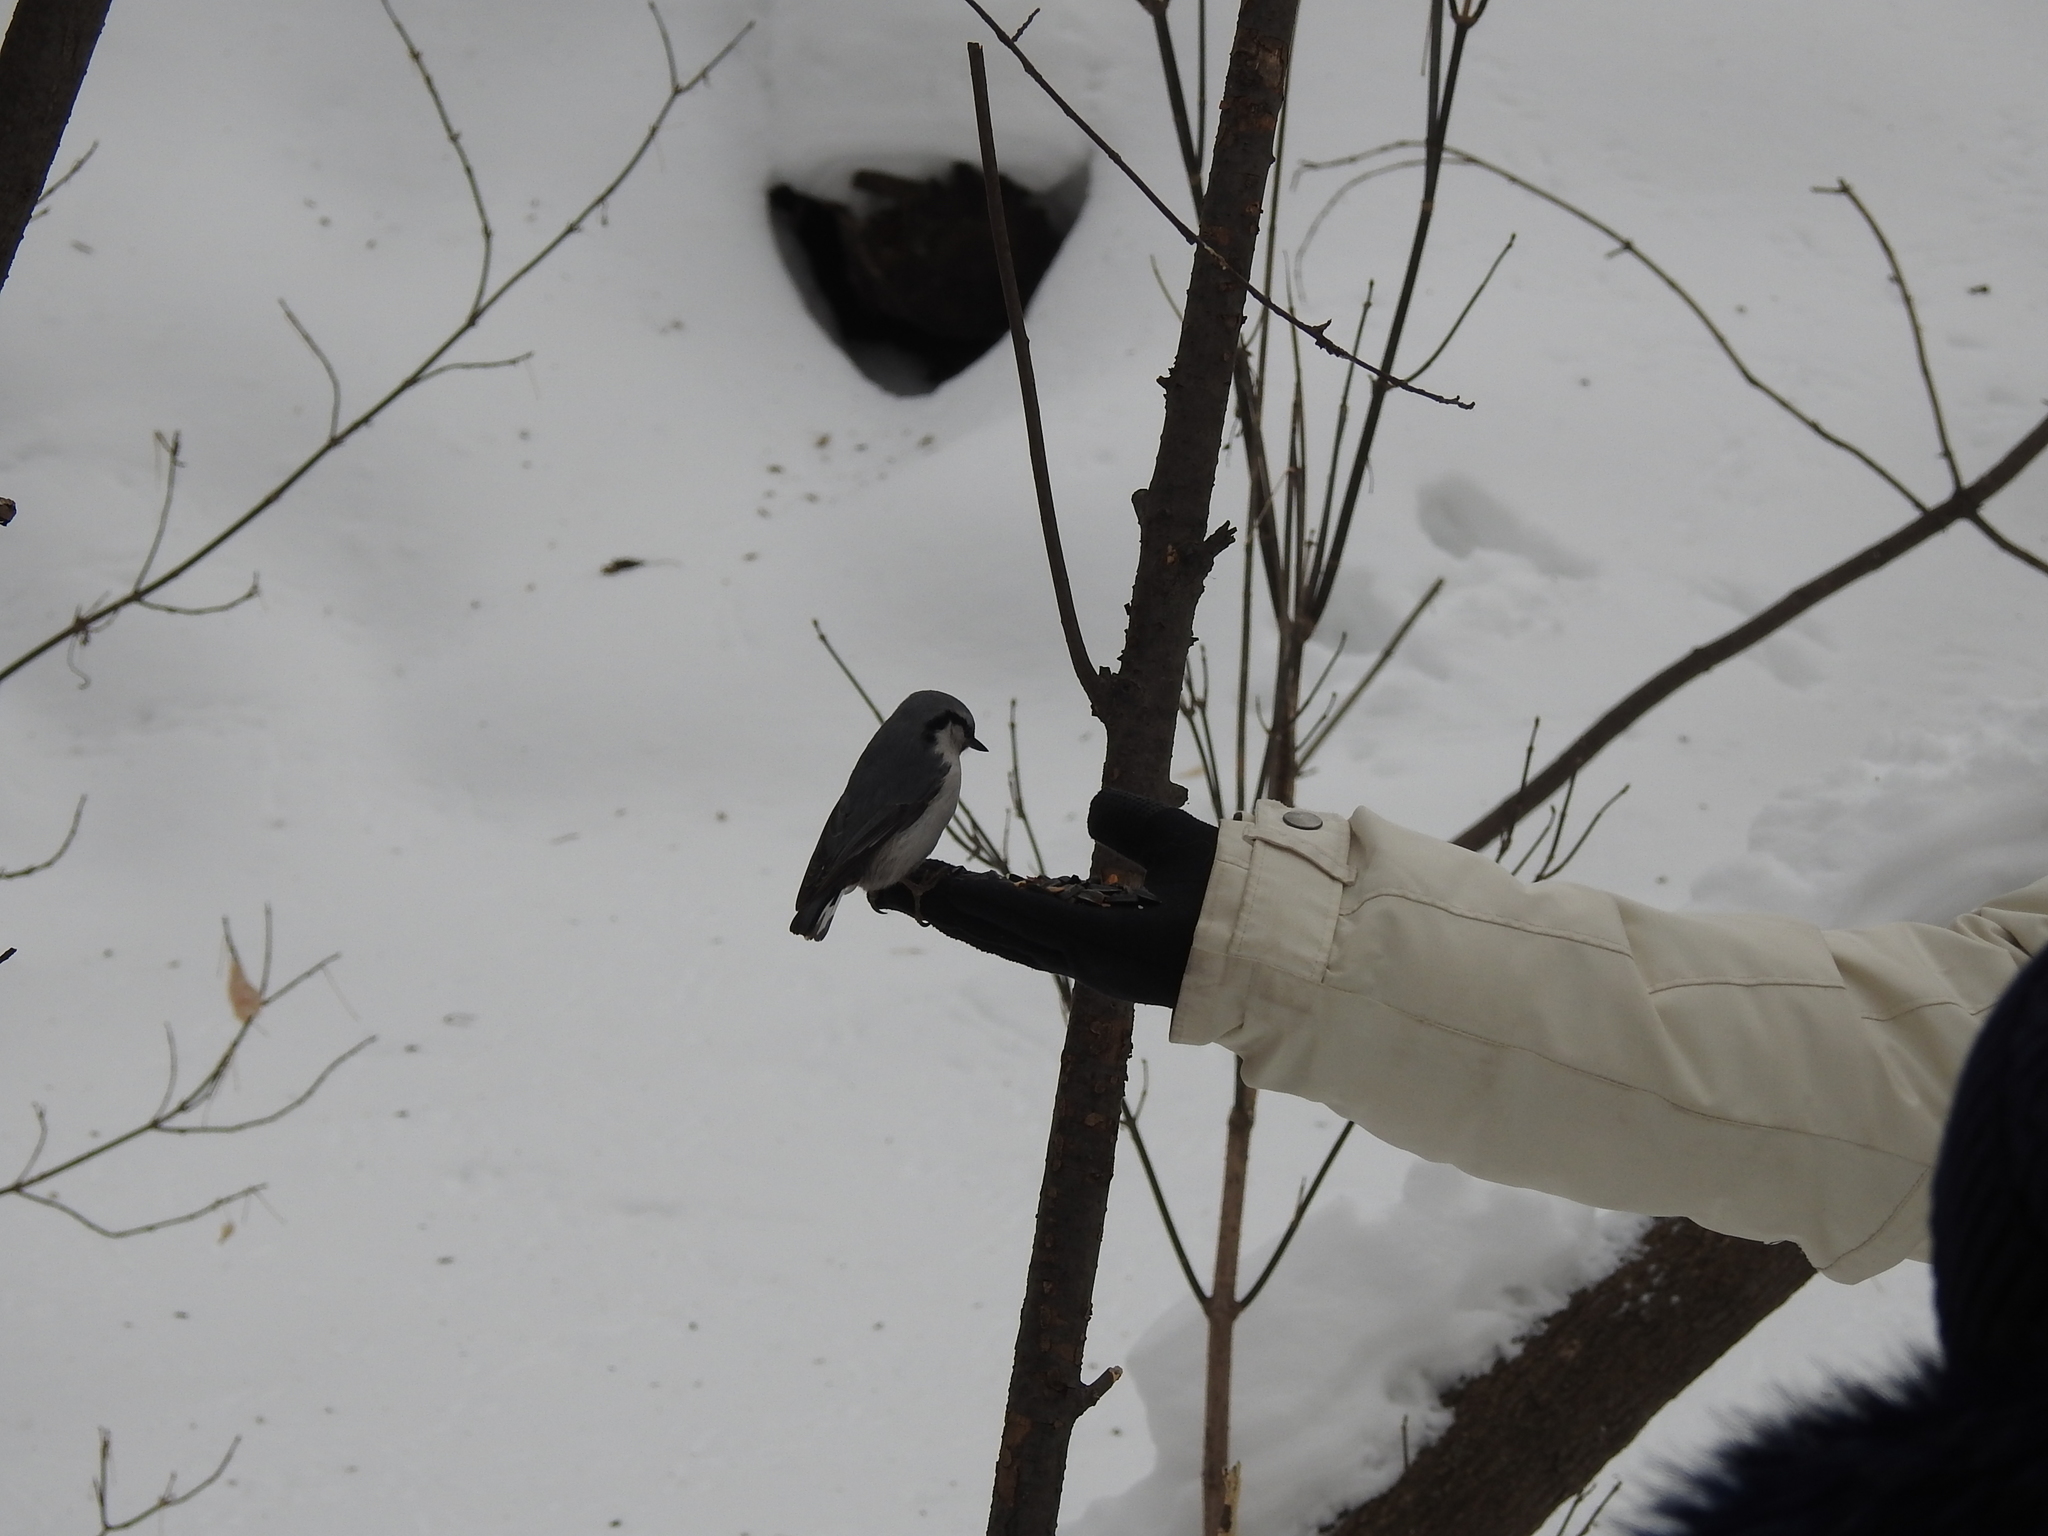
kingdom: Animalia
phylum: Chordata
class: Aves
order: Passeriformes
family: Sittidae
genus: Sitta
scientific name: Sitta europaea
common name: Eurasian nuthatch
